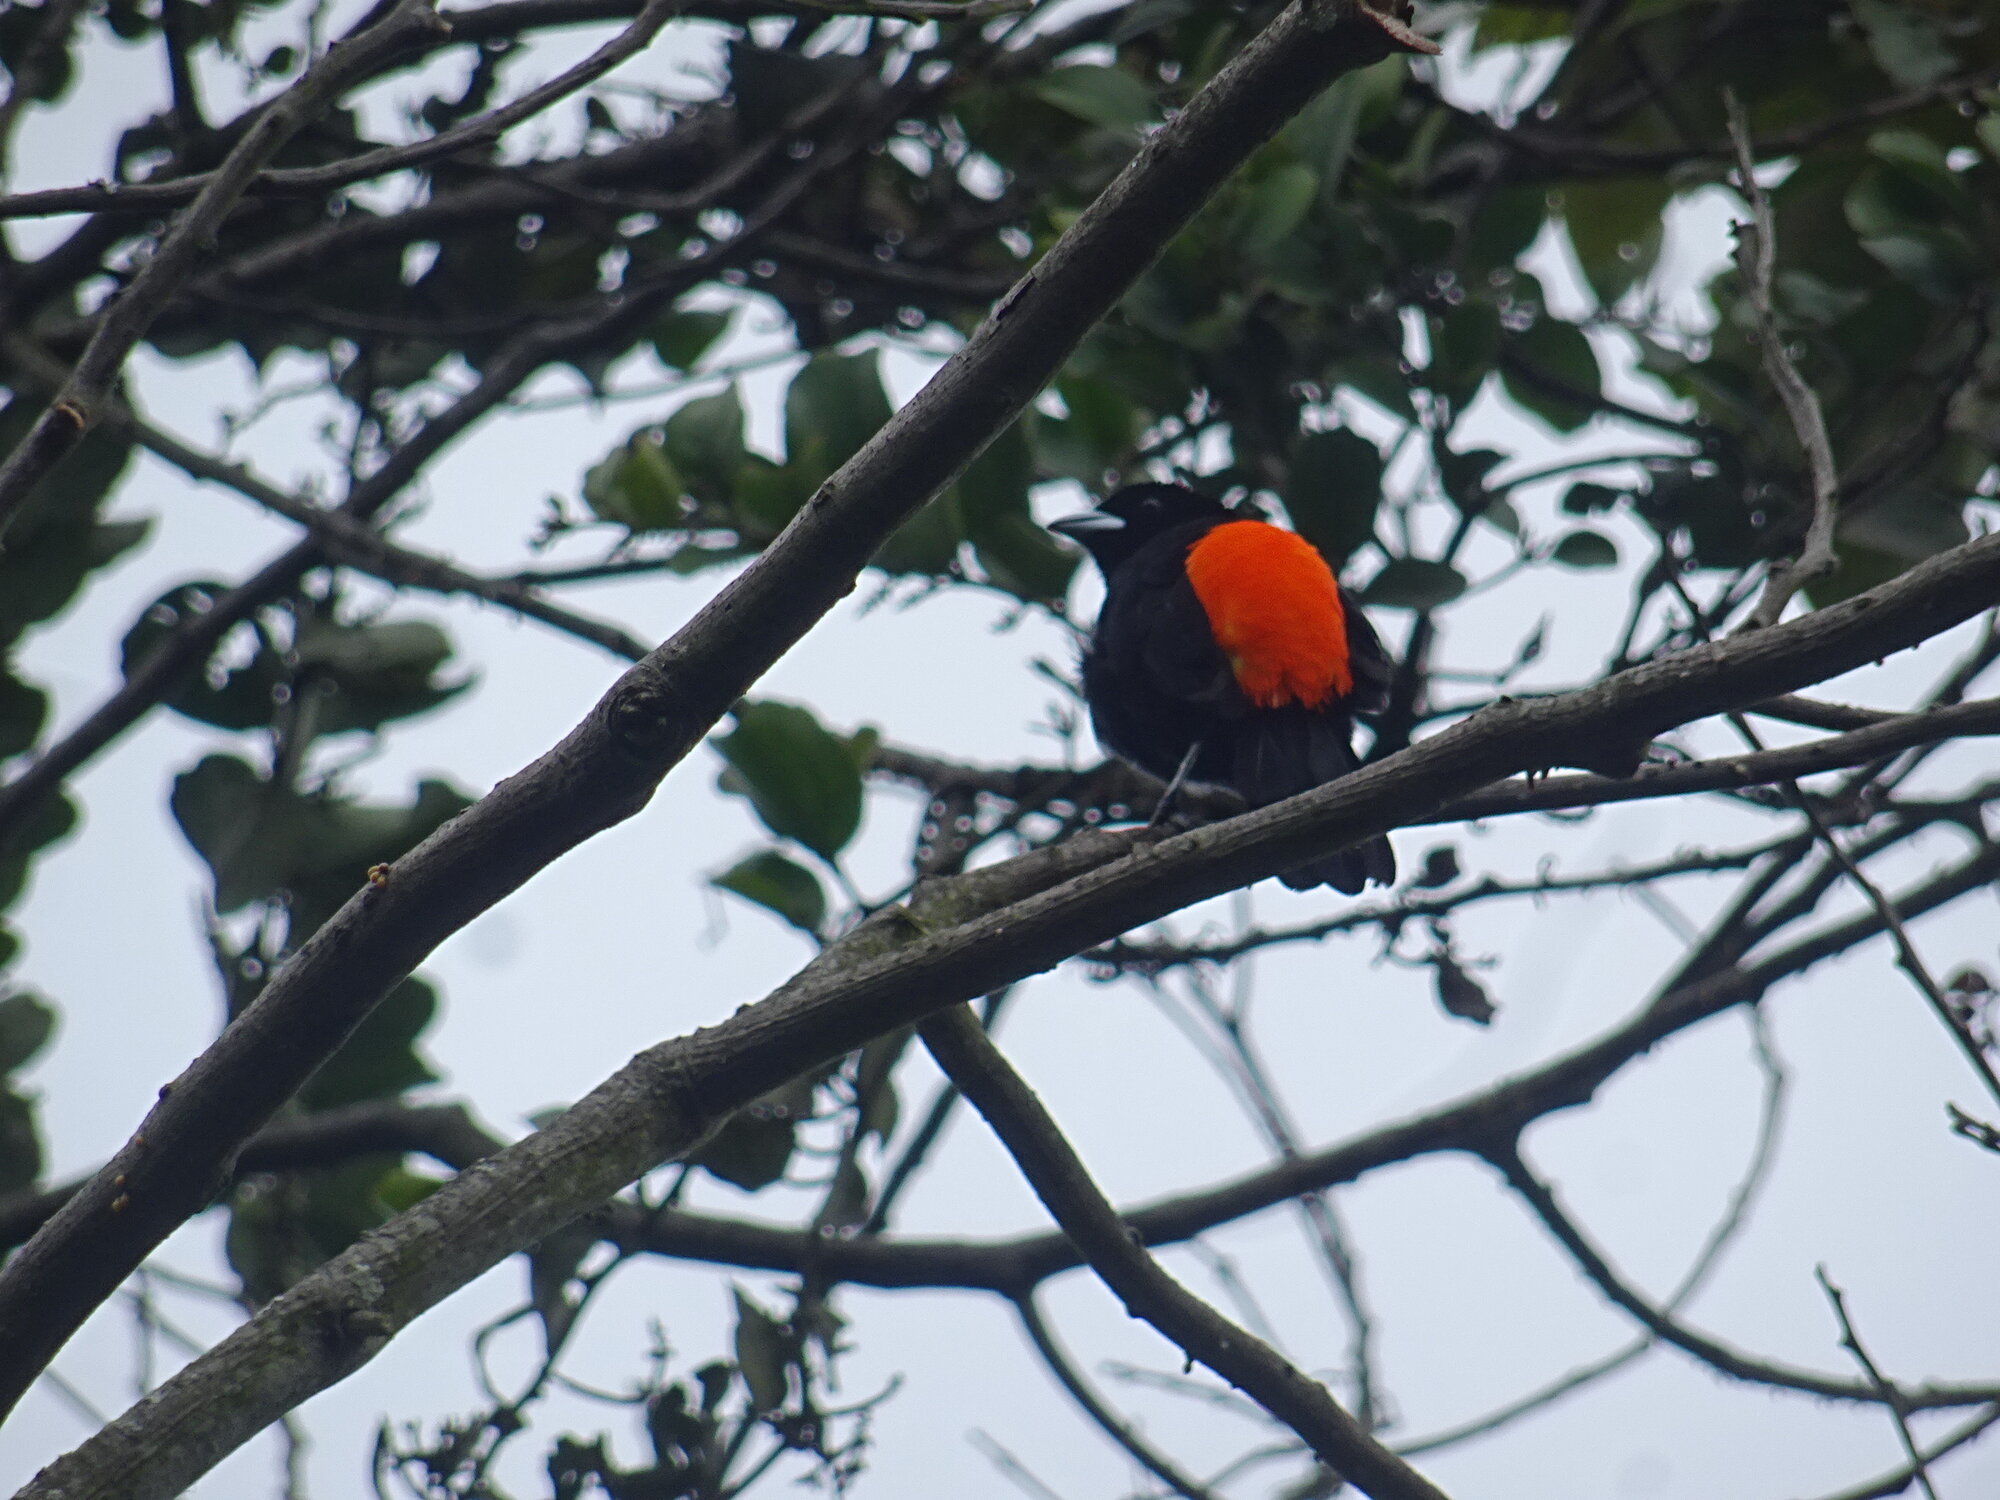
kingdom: Animalia
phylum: Chordata
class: Aves
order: Passeriformes
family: Thraupidae
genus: Ramphocelus
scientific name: Ramphocelus flammigerus
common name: Flame-rumped tanager
